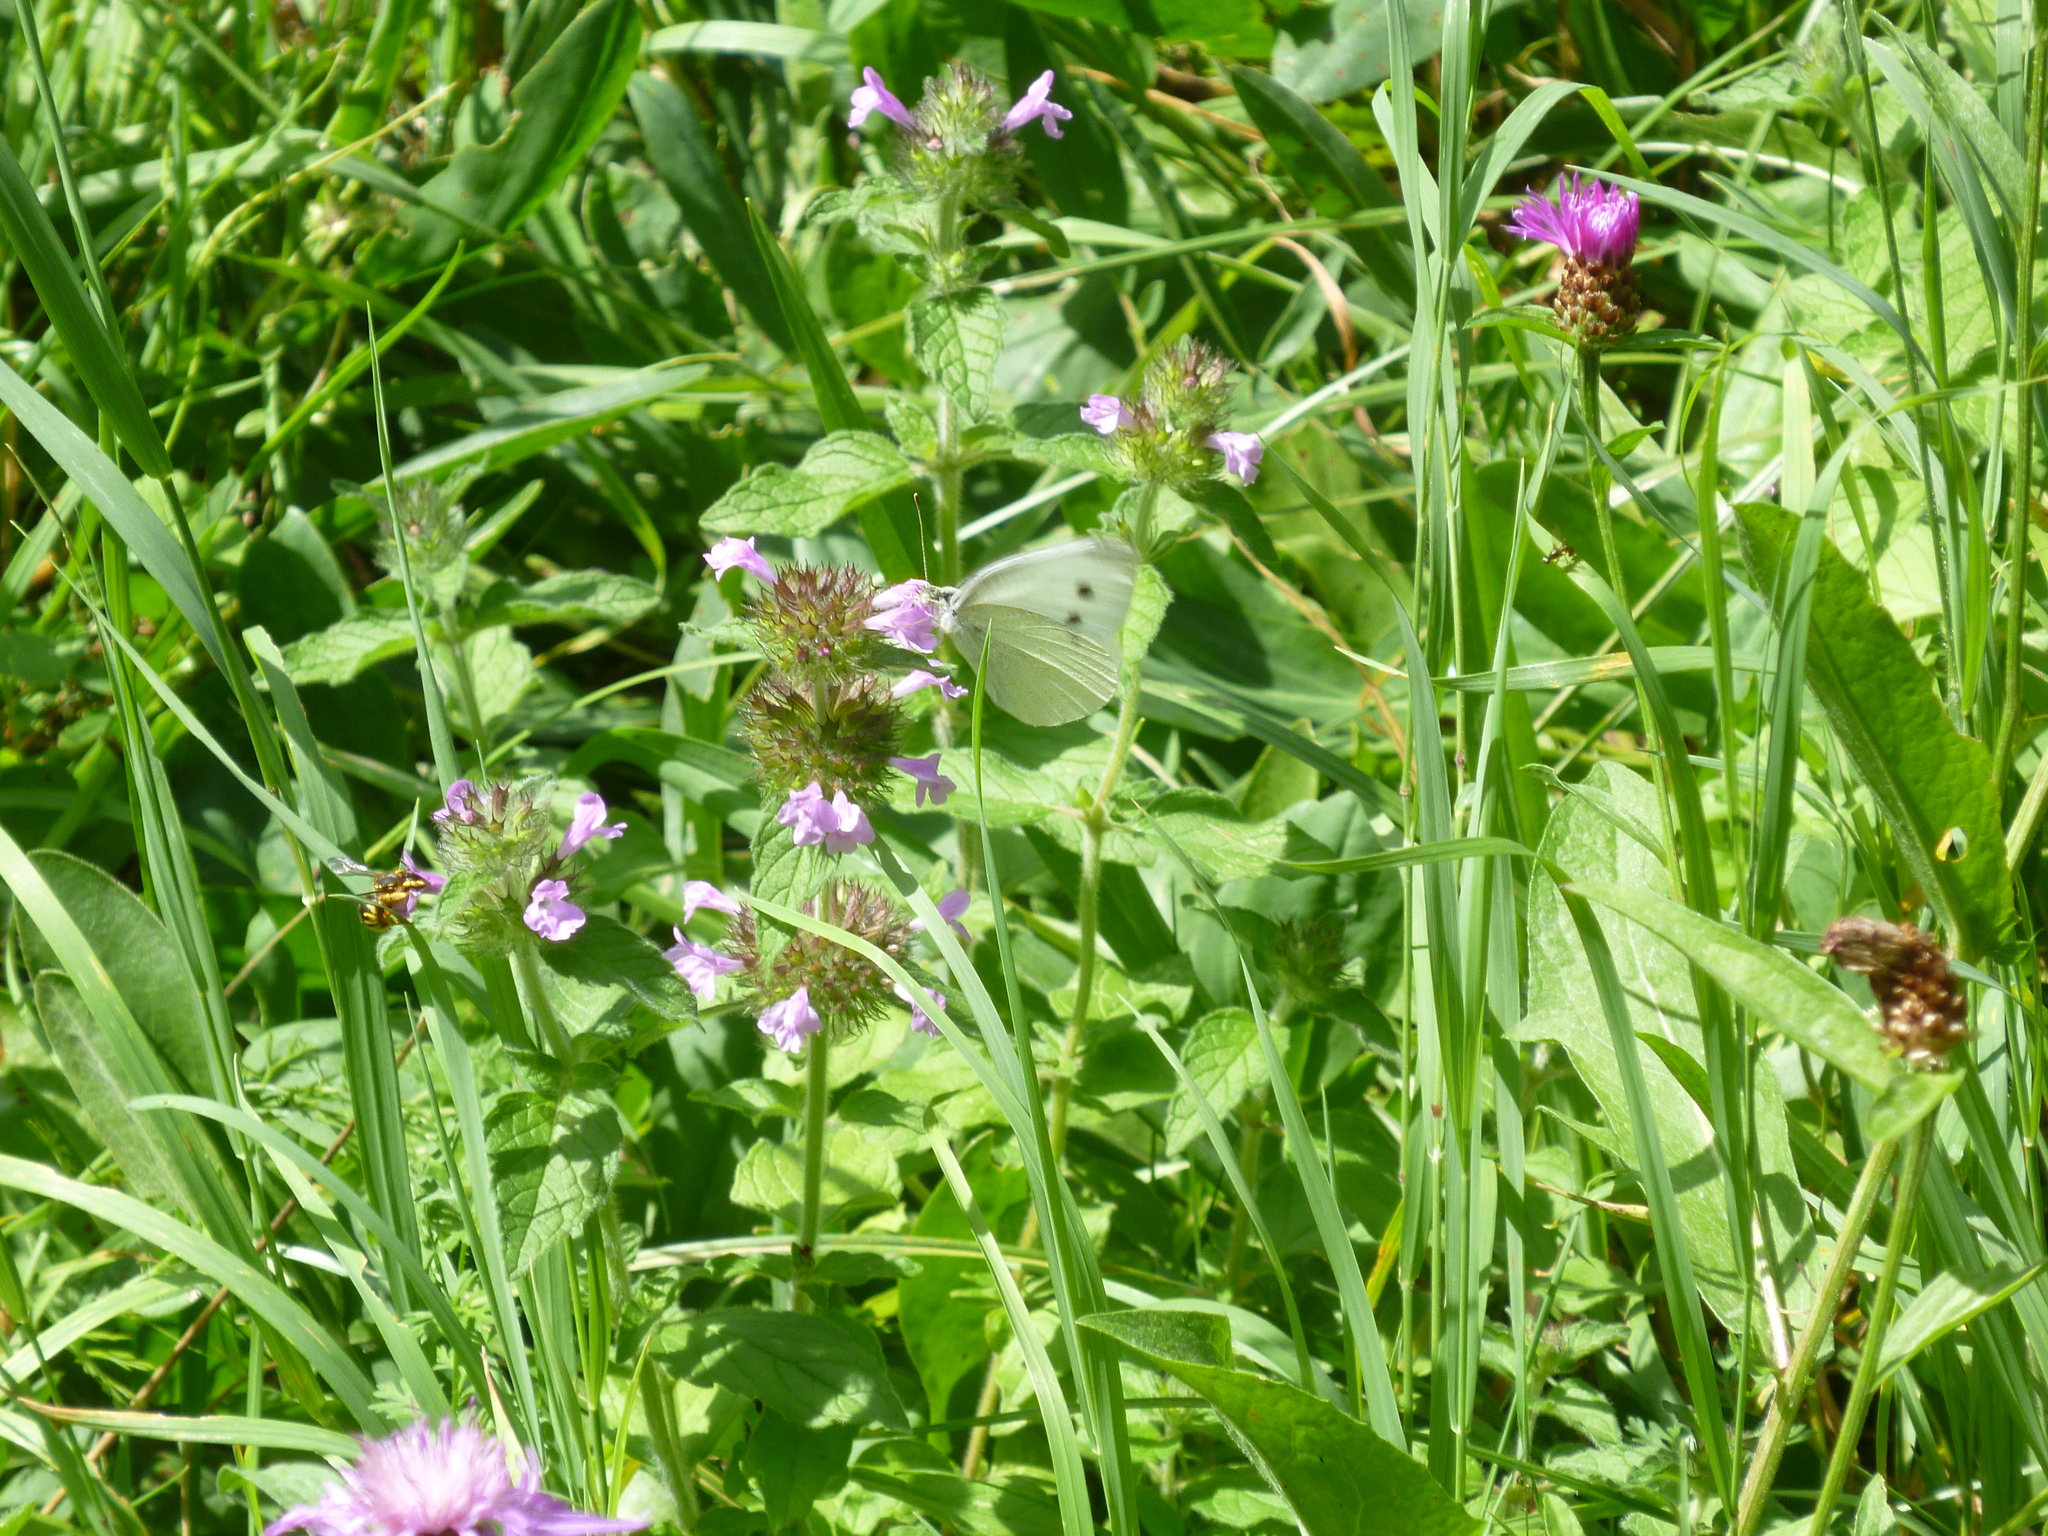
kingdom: Animalia
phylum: Arthropoda
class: Insecta
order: Lepidoptera
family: Pieridae
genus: Pieris
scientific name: Pieris rapae
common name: Small white
